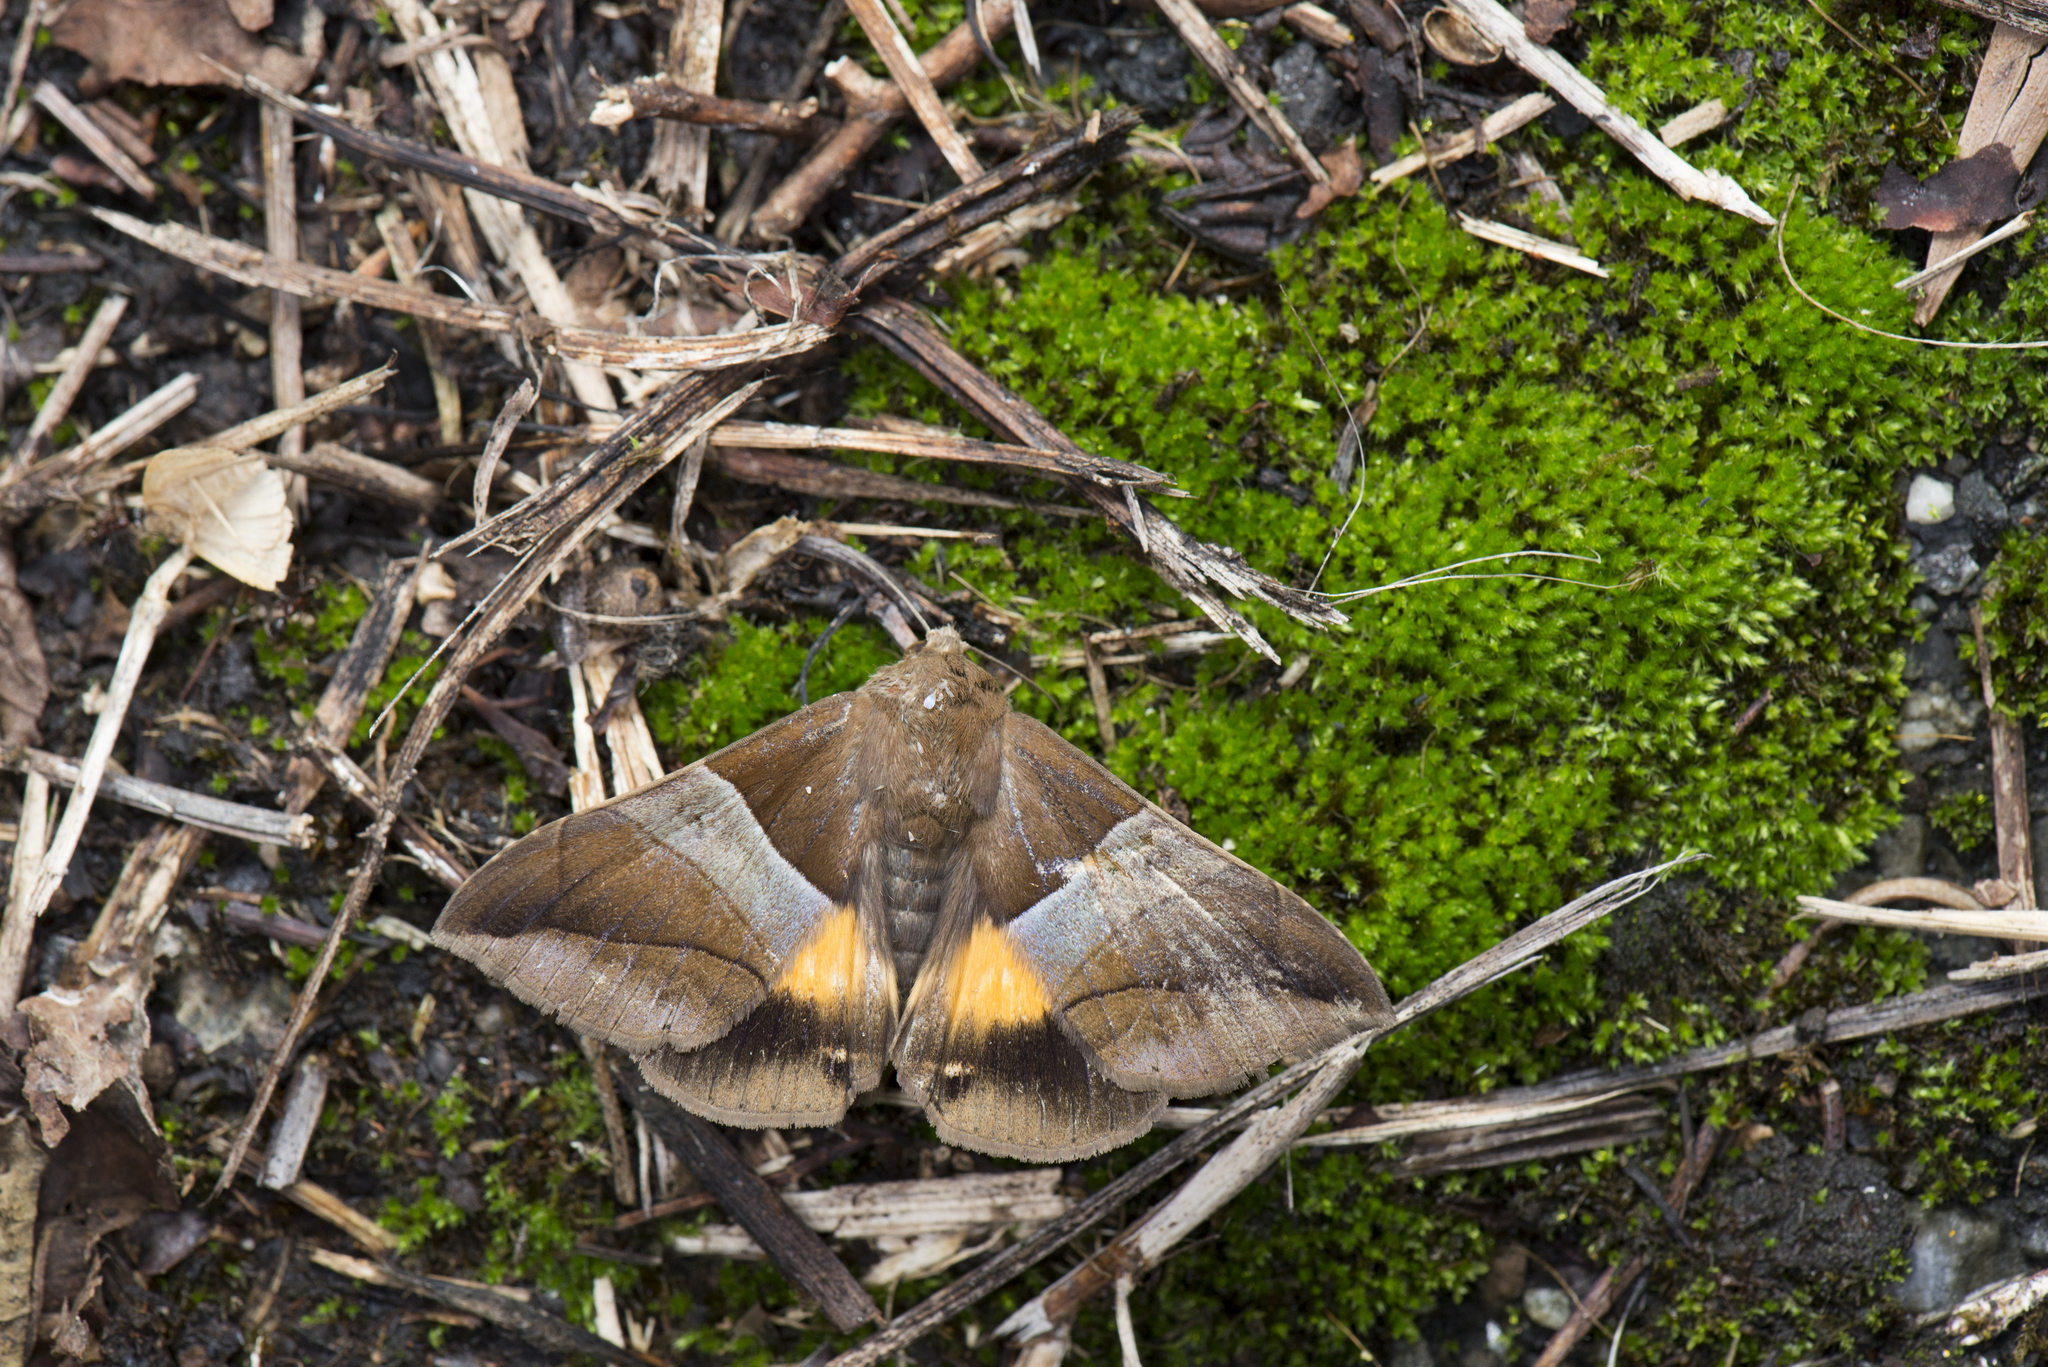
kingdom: Animalia
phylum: Arthropoda
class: Insecta
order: Lepidoptera
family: Erebidae
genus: Bastilla
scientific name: Bastilla fulvotaenia
